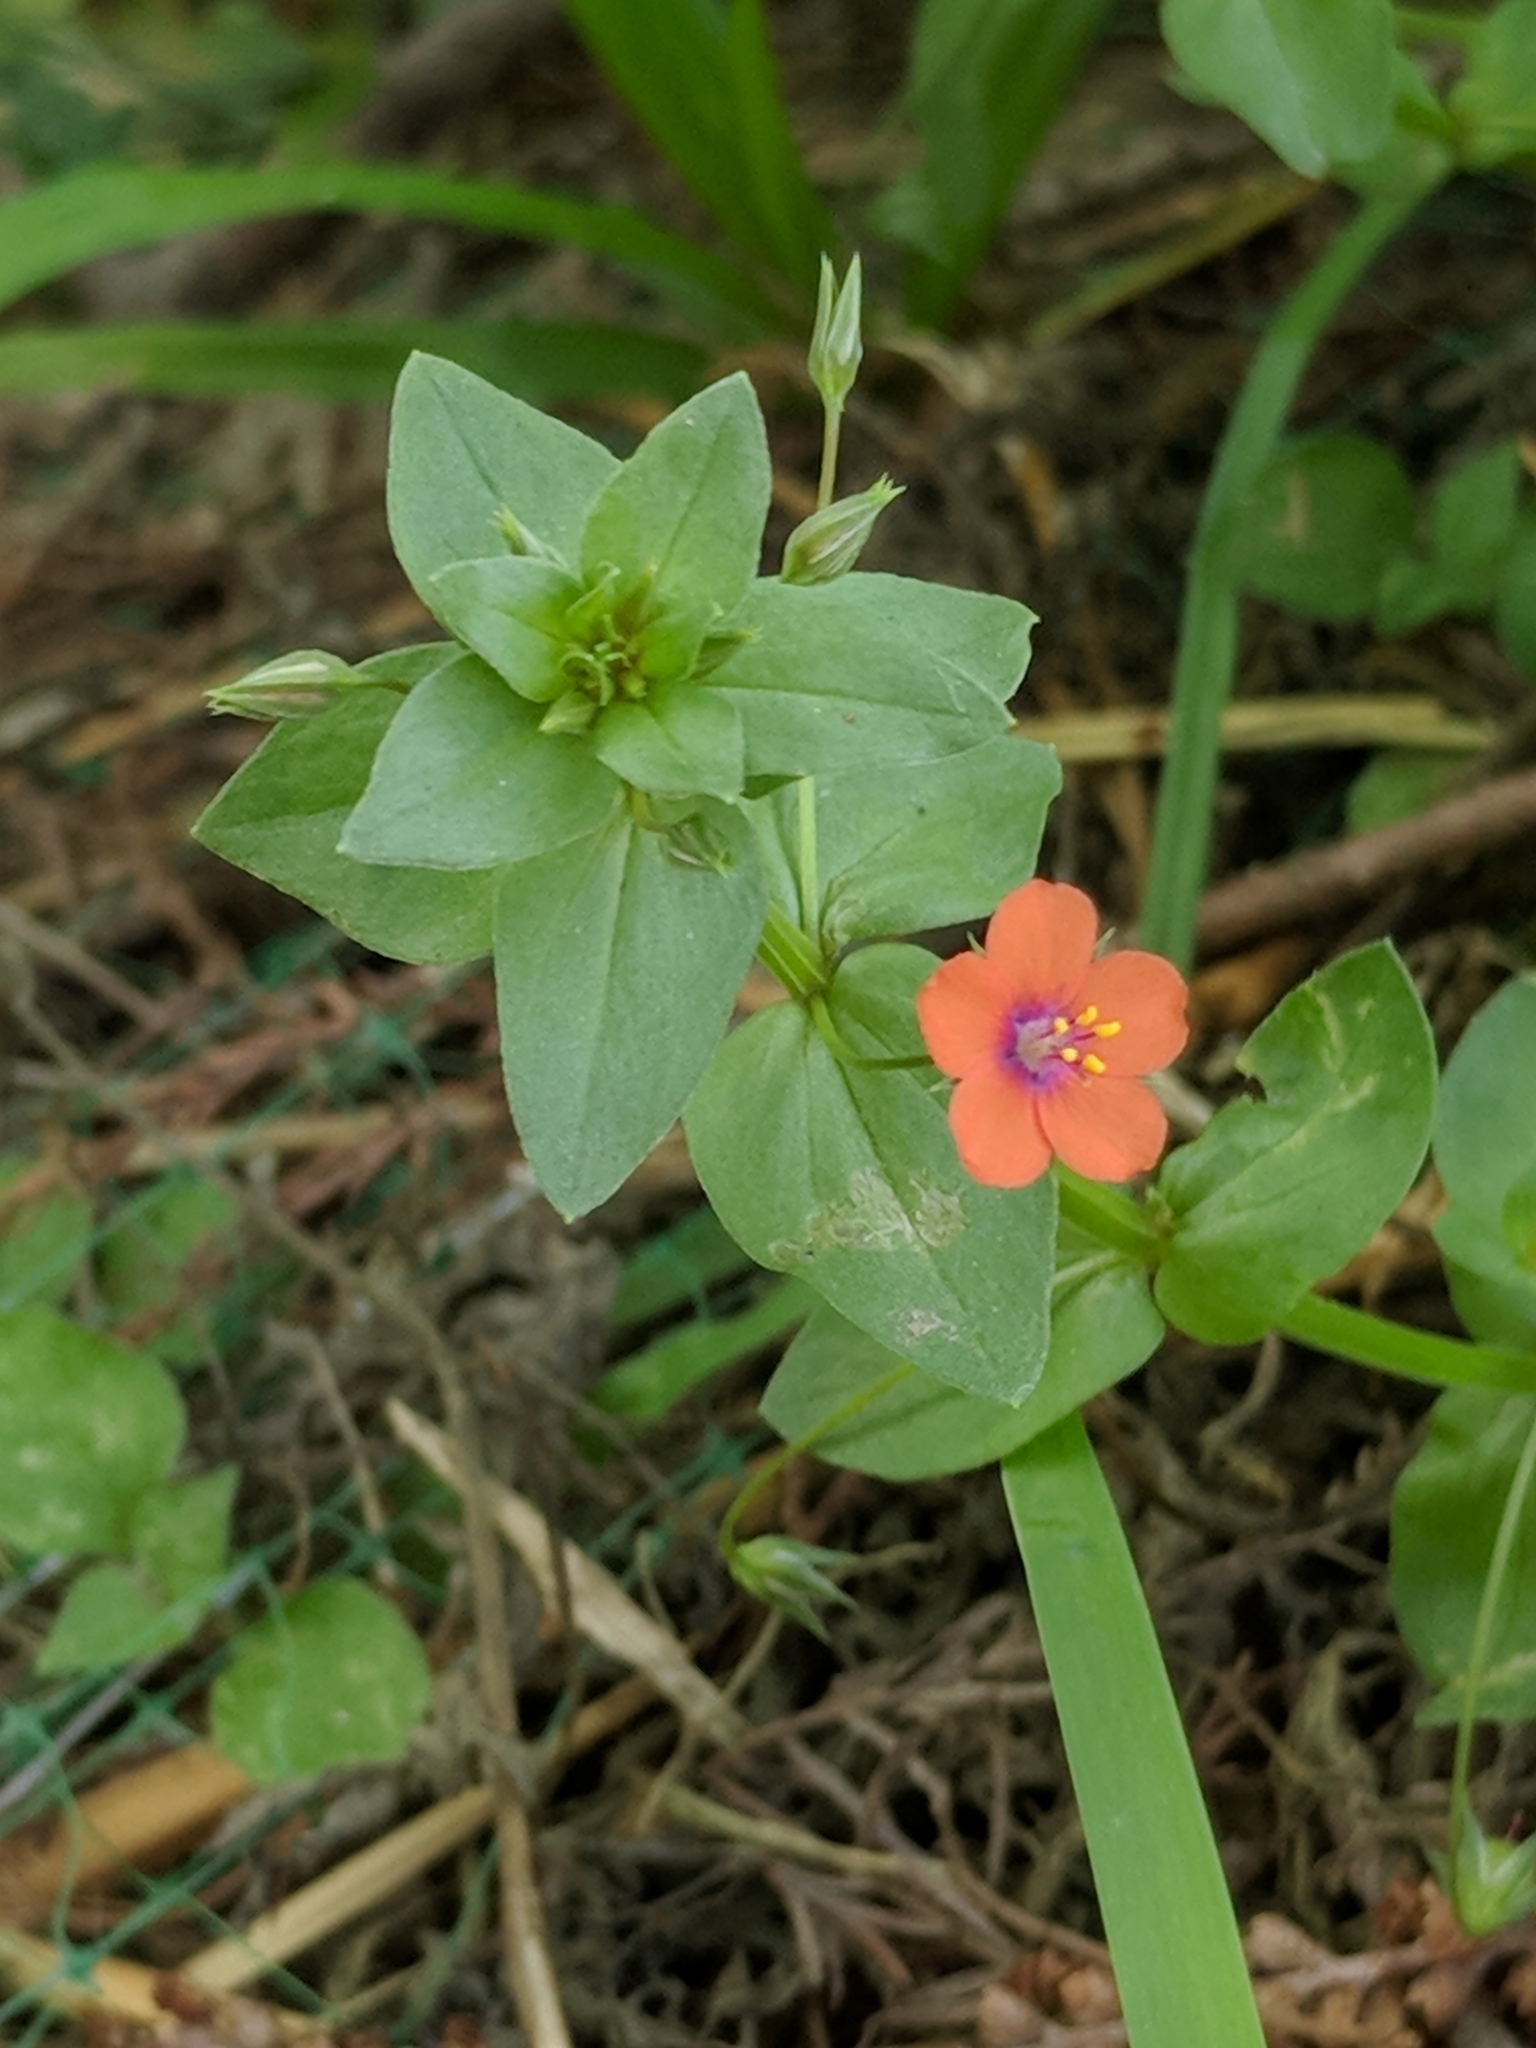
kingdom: Plantae
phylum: Tracheophyta
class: Magnoliopsida
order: Ericales
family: Primulaceae
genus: Lysimachia
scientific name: Lysimachia arvensis
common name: Scarlet pimpernel
